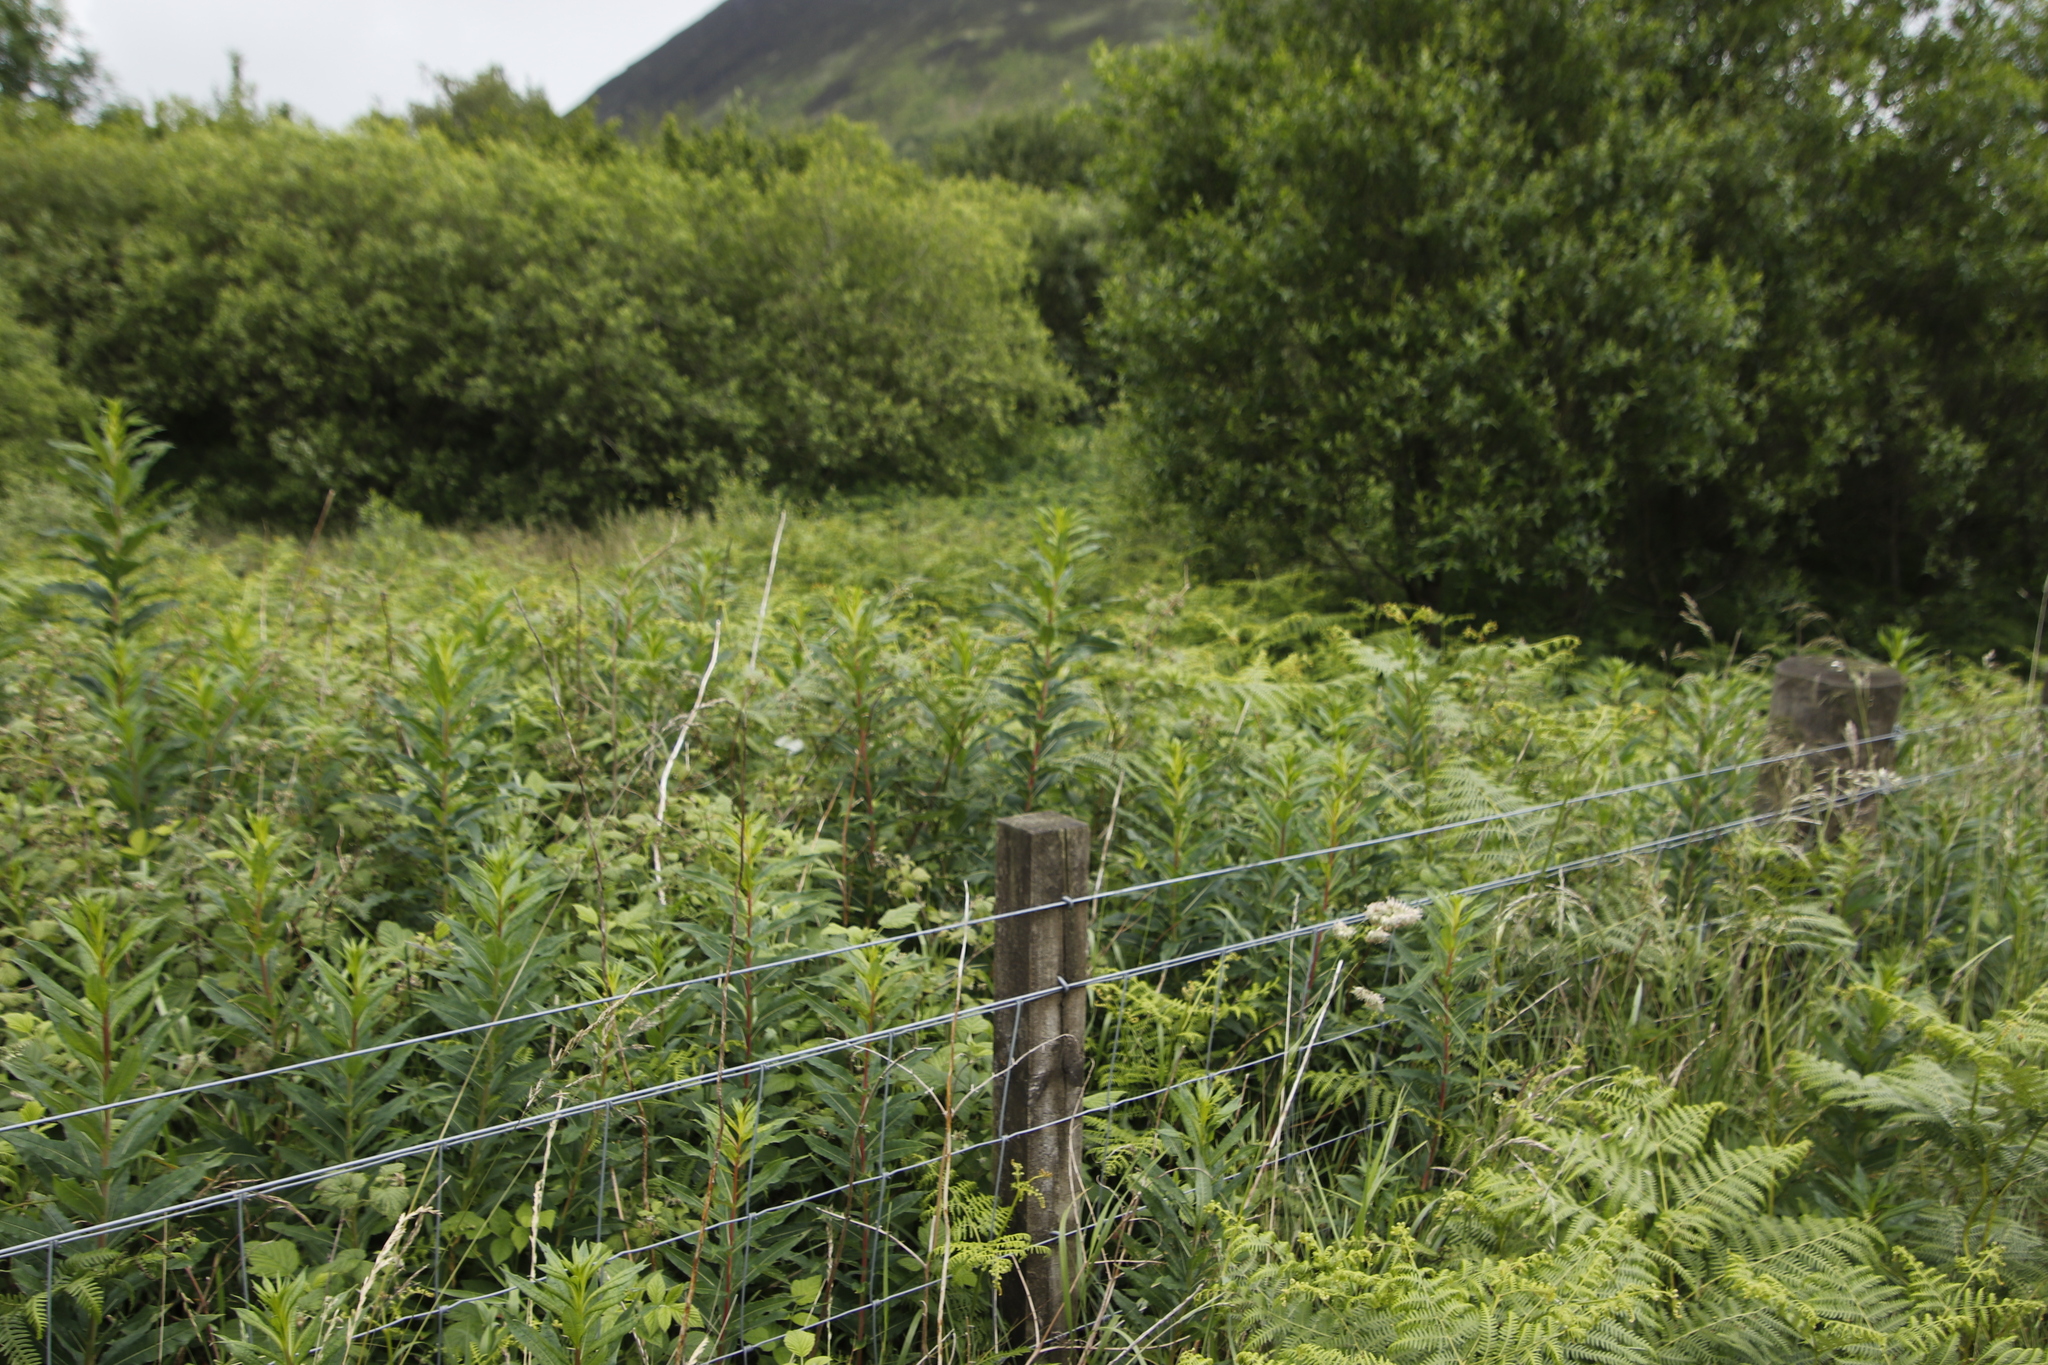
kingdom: Plantae
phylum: Tracheophyta
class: Magnoliopsida
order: Myrtales
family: Onagraceae
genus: Chamaenerion
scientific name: Chamaenerion angustifolium
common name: Fireweed
